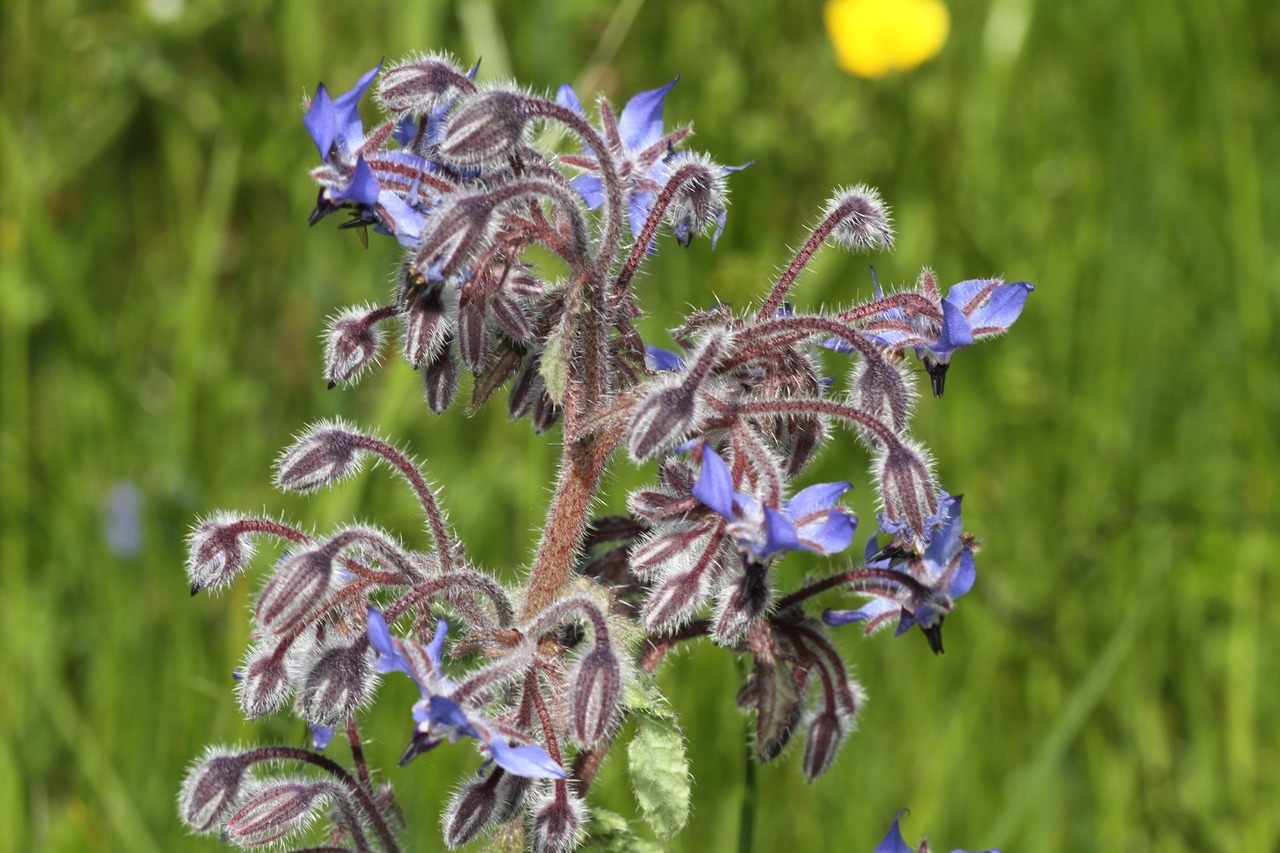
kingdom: Plantae
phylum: Tracheophyta
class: Magnoliopsida
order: Boraginales
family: Boraginaceae
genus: Borago
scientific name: Borago officinalis
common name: Borage
